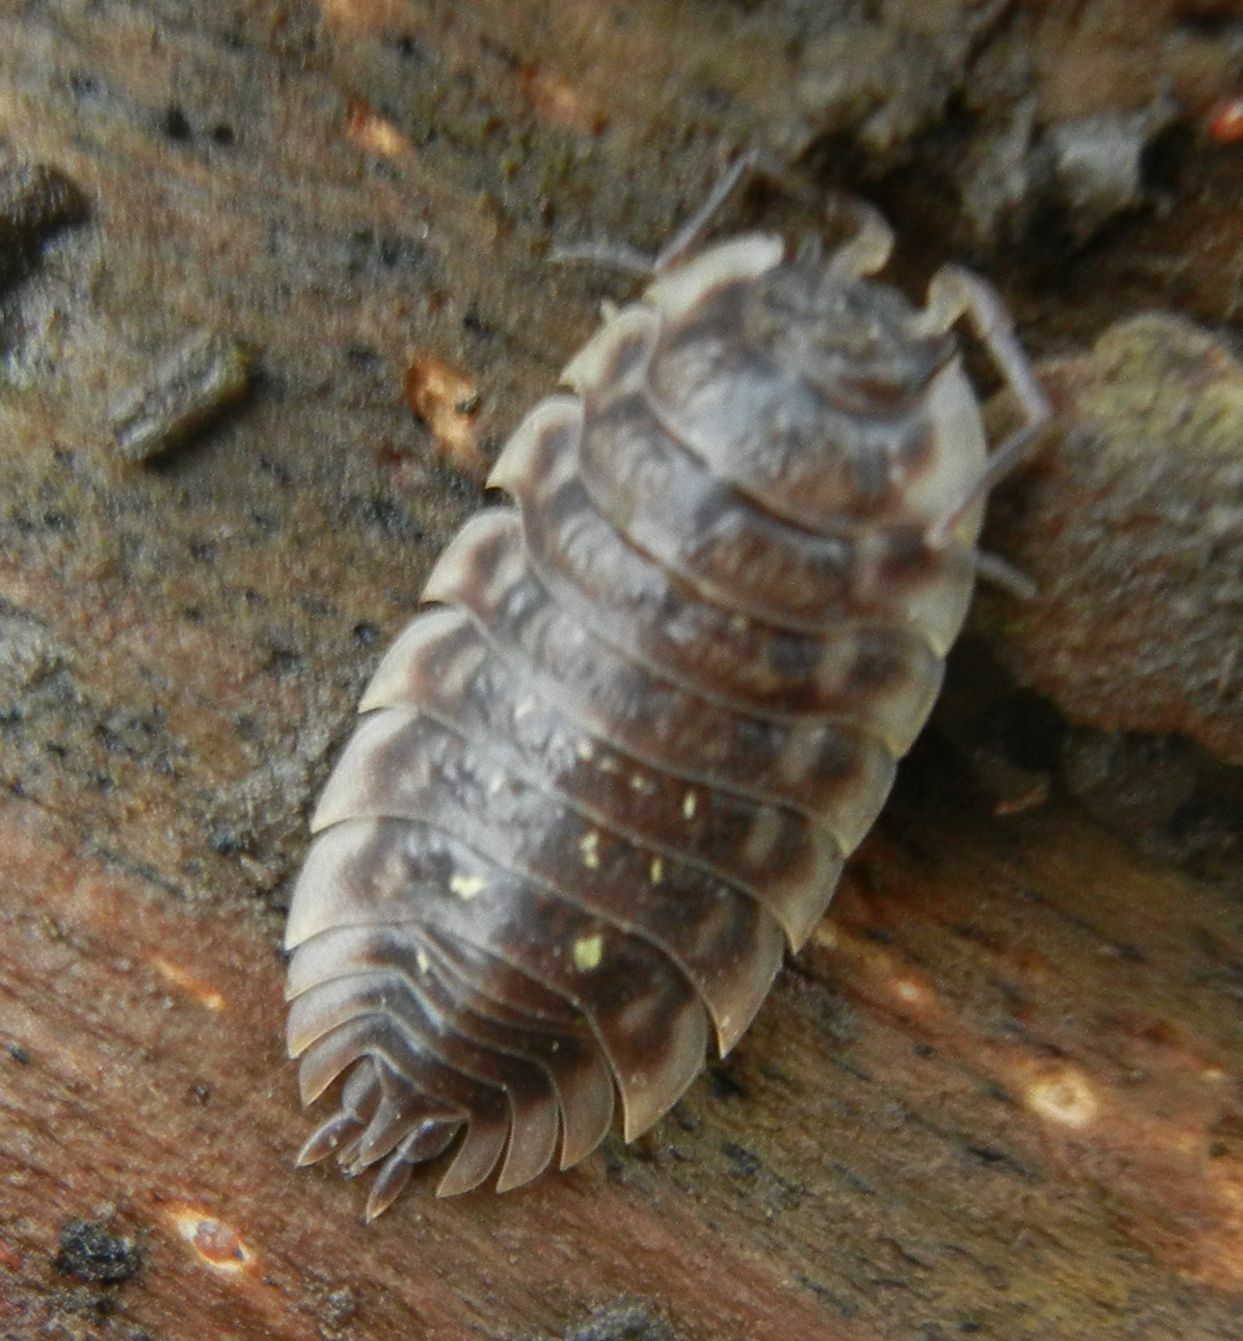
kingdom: Animalia
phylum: Arthropoda
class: Malacostraca
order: Isopoda
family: Oniscidae
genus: Oniscus
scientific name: Oniscus asellus
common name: Common shiny woodlouse
